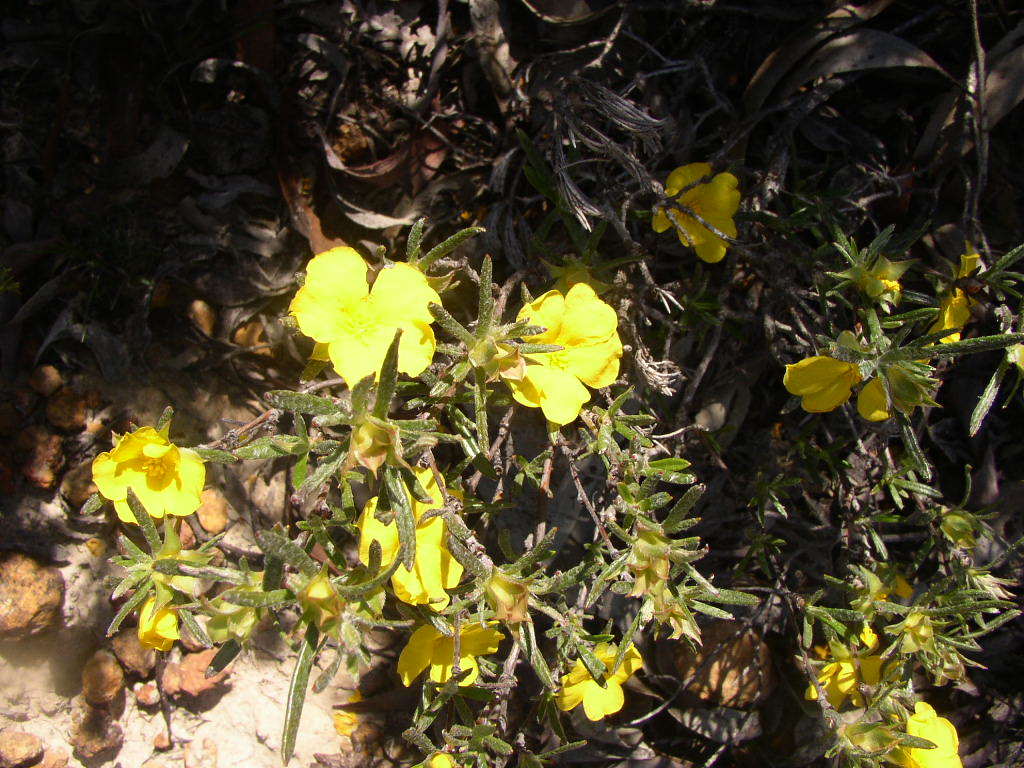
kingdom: Plantae
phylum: Tracheophyta
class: Magnoliopsida
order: Dilleniales
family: Dilleniaceae
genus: Hibbertia
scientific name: Hibbertia squarrosa
